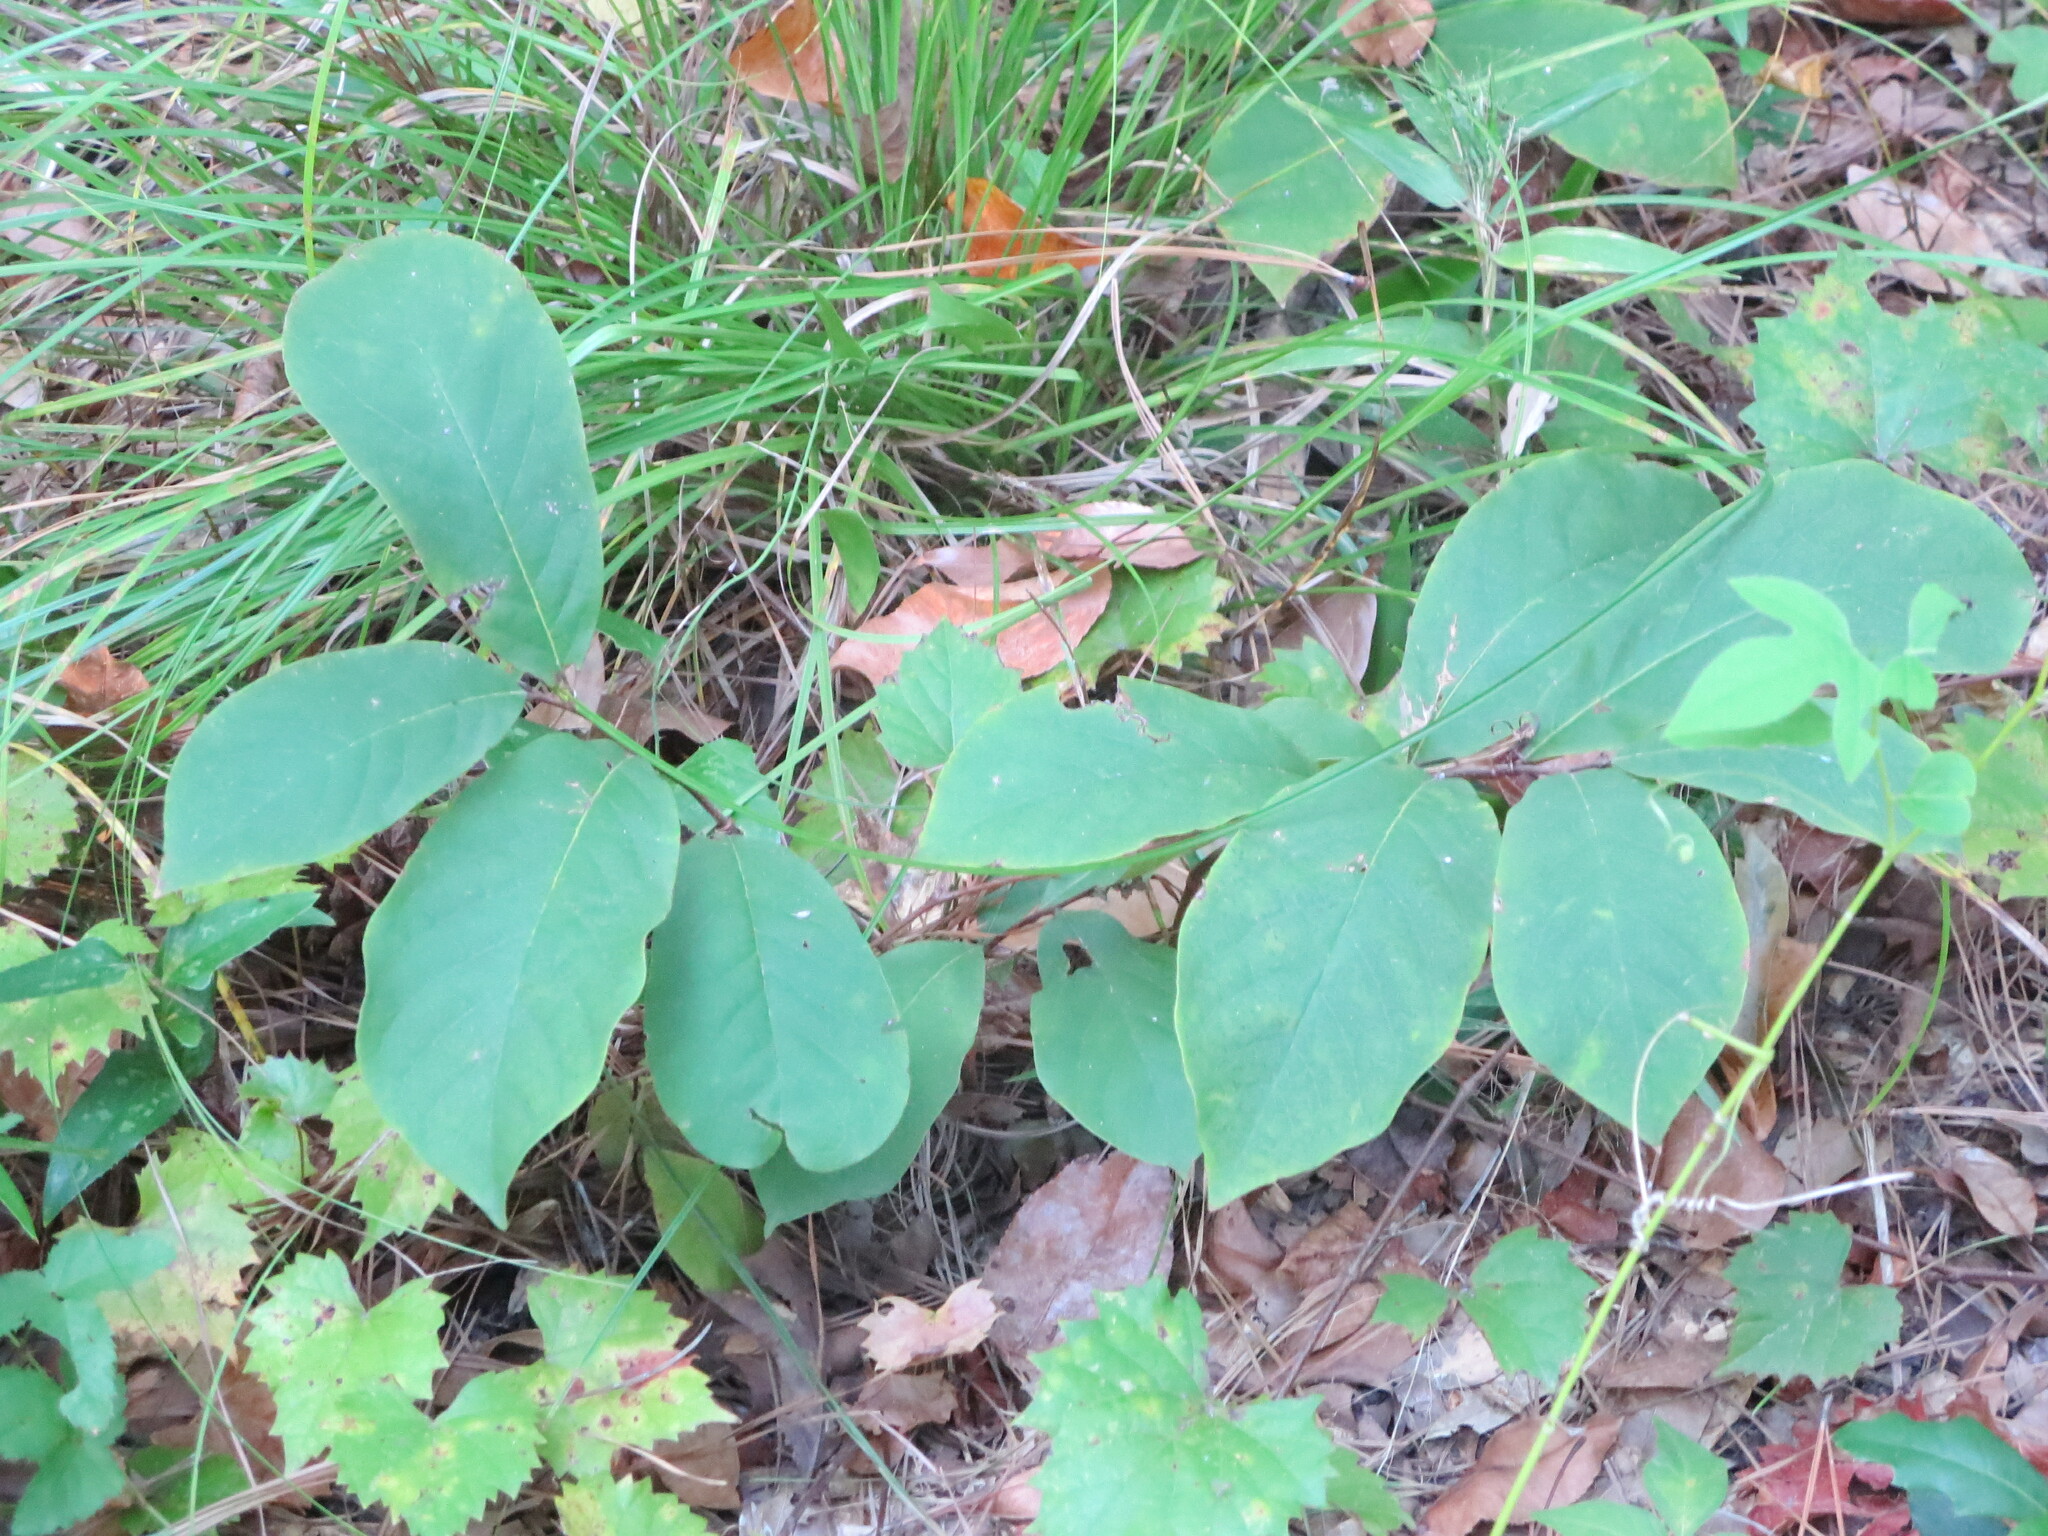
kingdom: Plantae
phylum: Tracheophyta
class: Magnoliopsida
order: Magnoliales
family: Annonaceae
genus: Asimina
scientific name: Asimina parviflora
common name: Dwarf pawpaw
